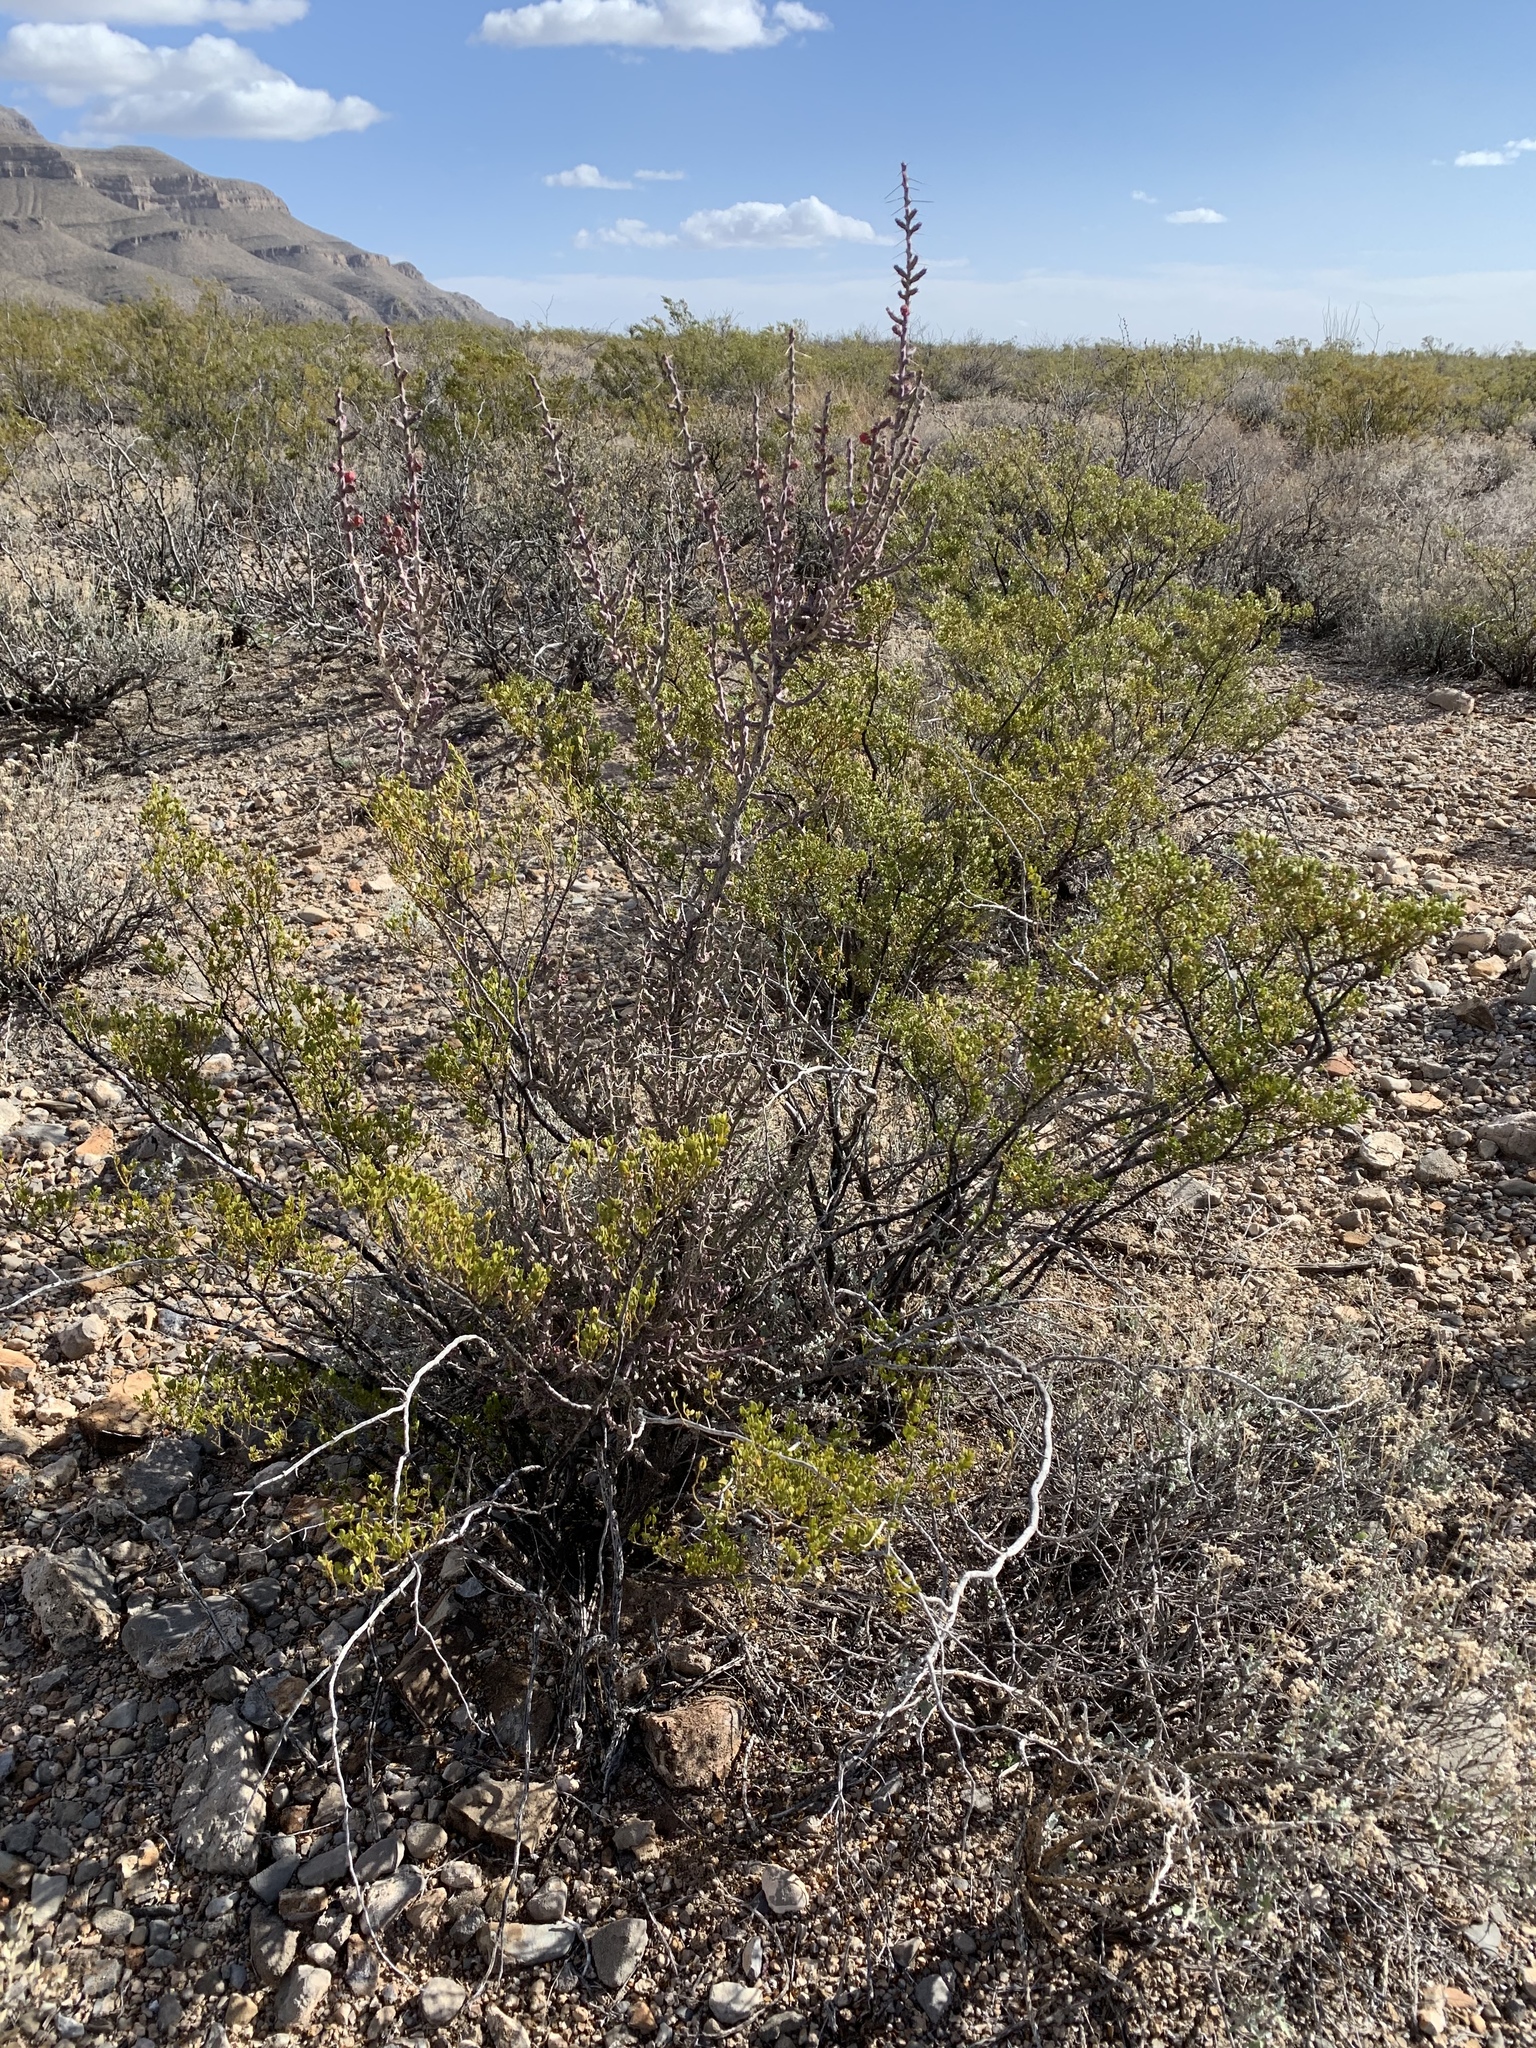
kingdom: Plantae
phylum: Tracheophyta
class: Magnoliopsida
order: Zygophyllales
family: Zygophyllaceae
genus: Larrea
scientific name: Larrea tridentata
